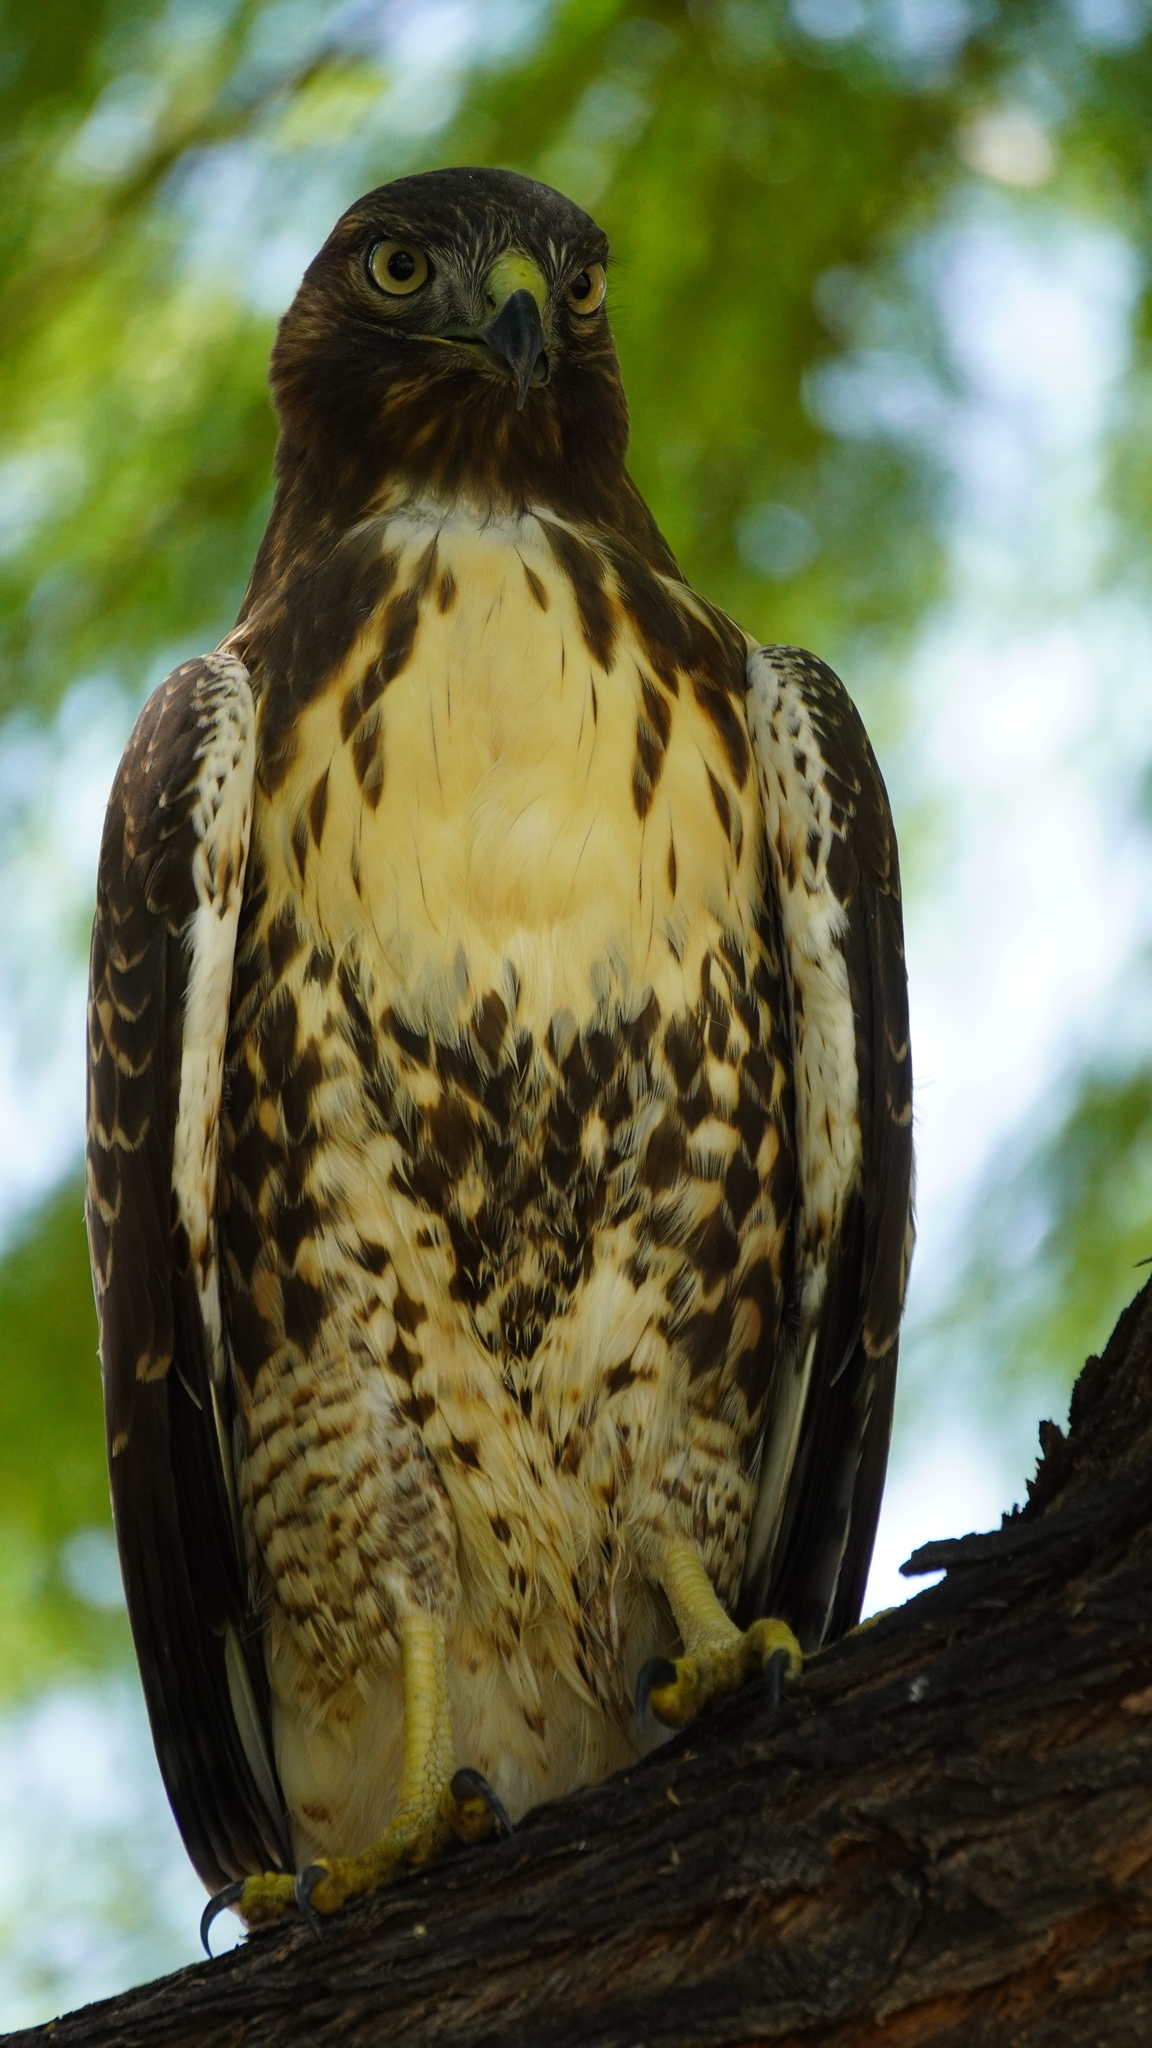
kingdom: Animalia
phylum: Chordata
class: Aves
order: Accipitriformes
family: Accipitridae
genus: Buteo
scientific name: Buteo jamaicensis
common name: Red-tailed hawk
